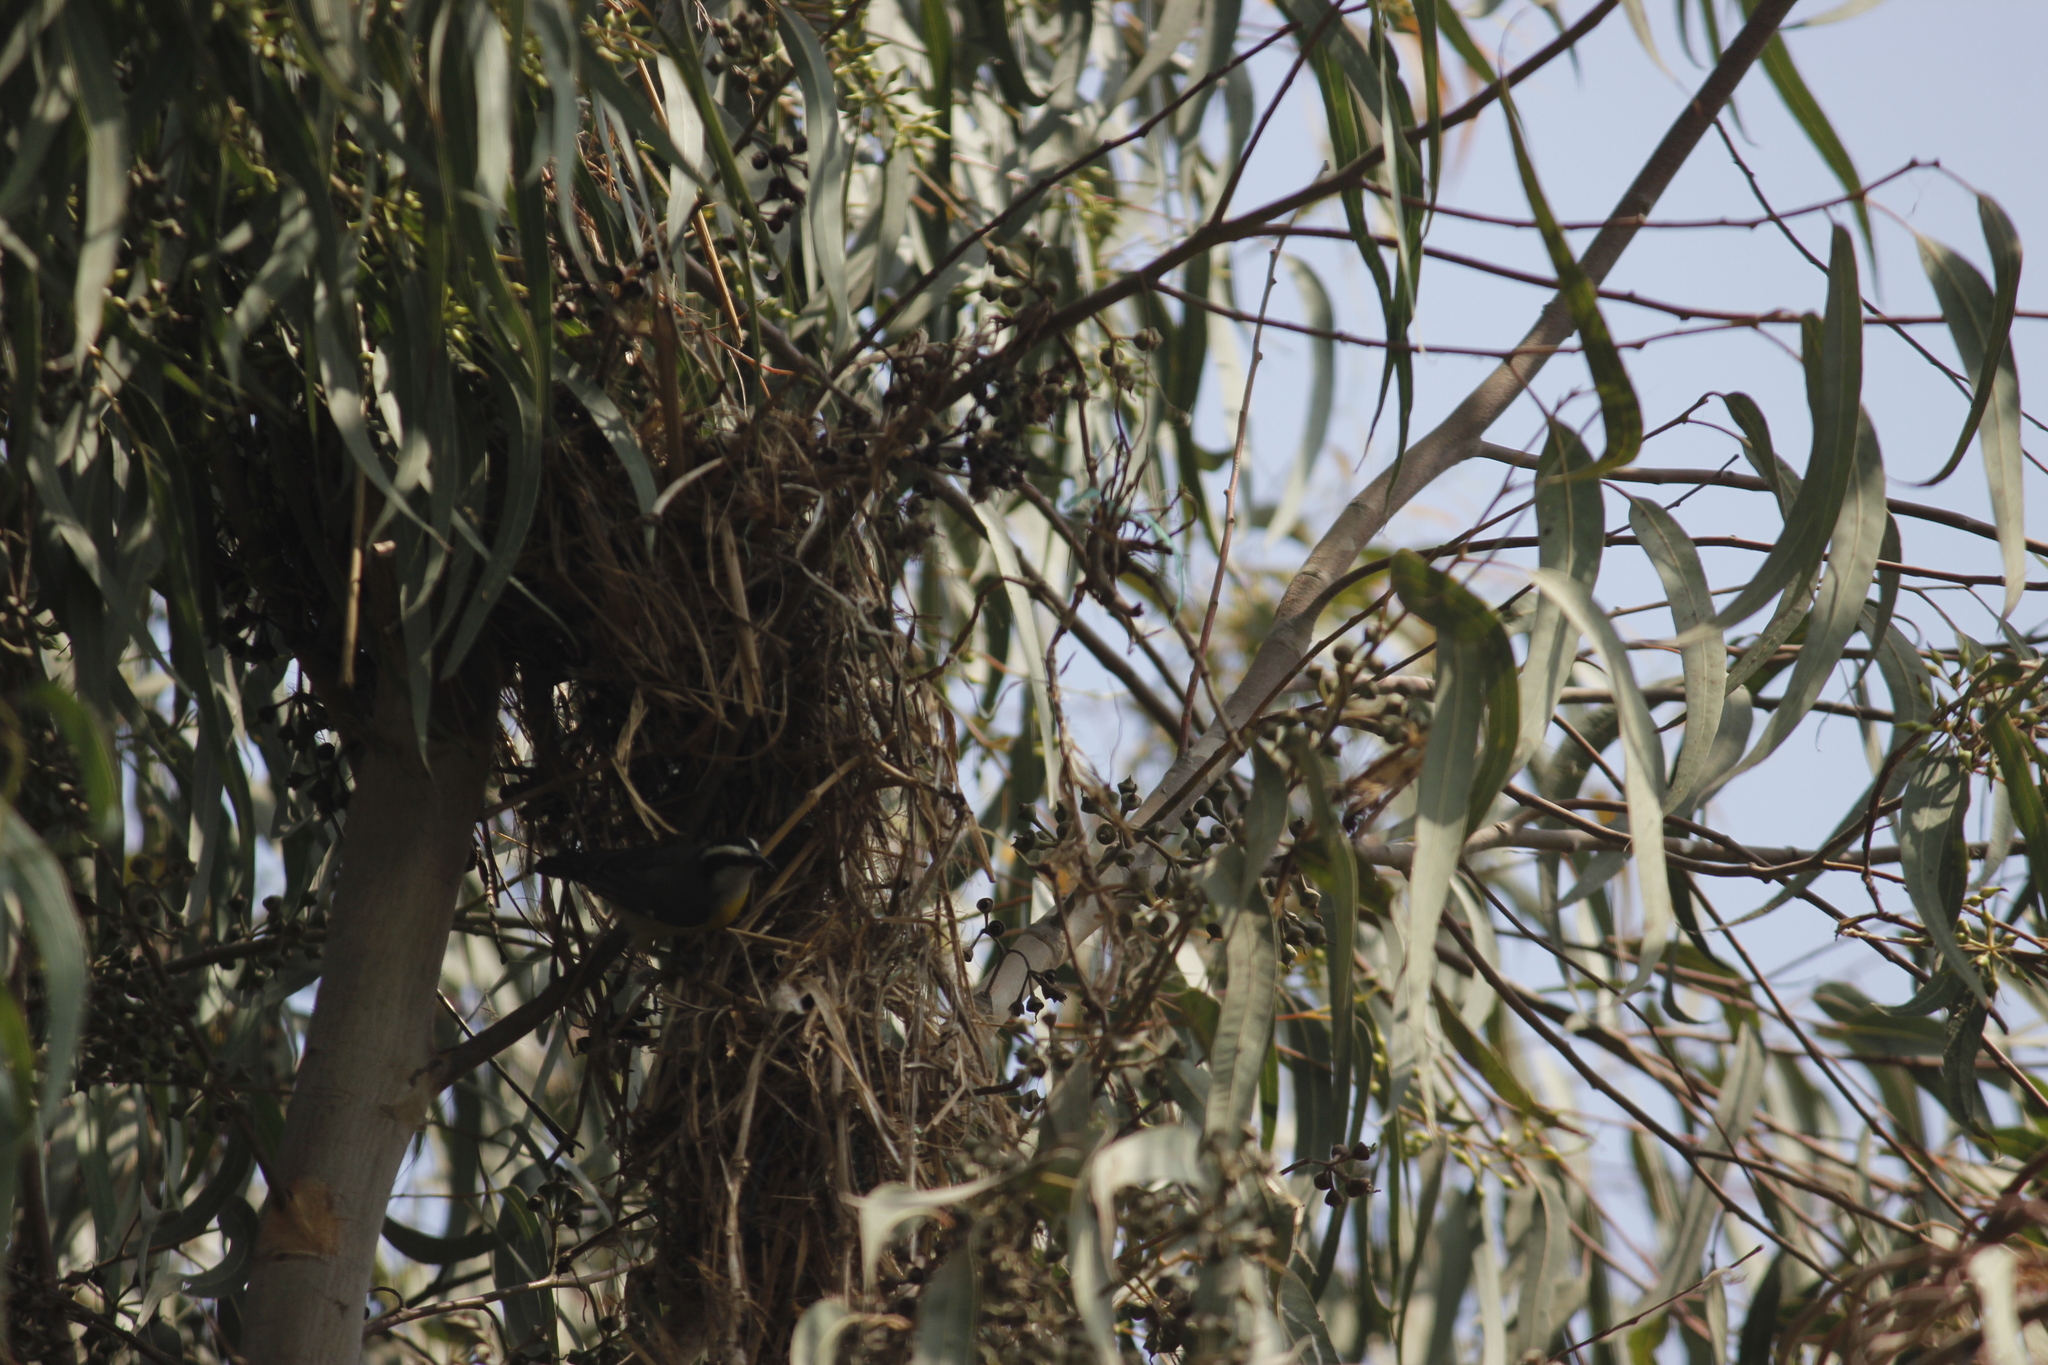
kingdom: Animalia
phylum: Chordata
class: Aves
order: Passeriformes
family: Thraupidae
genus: Coereba
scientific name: Coereba flaveola
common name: Bananaquit
